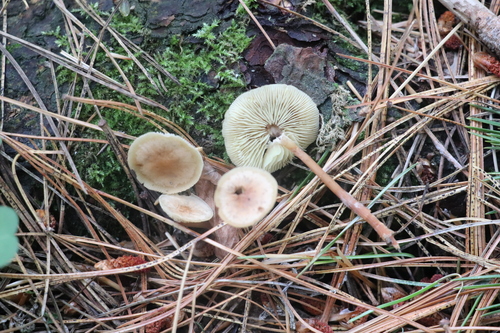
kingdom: Fungi
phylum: Basidiomycota
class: Agaricomycetes
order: Agaricales
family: Omphalotaceae
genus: Gymnopus
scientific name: Gymnopus dryophilus
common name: Penny top
